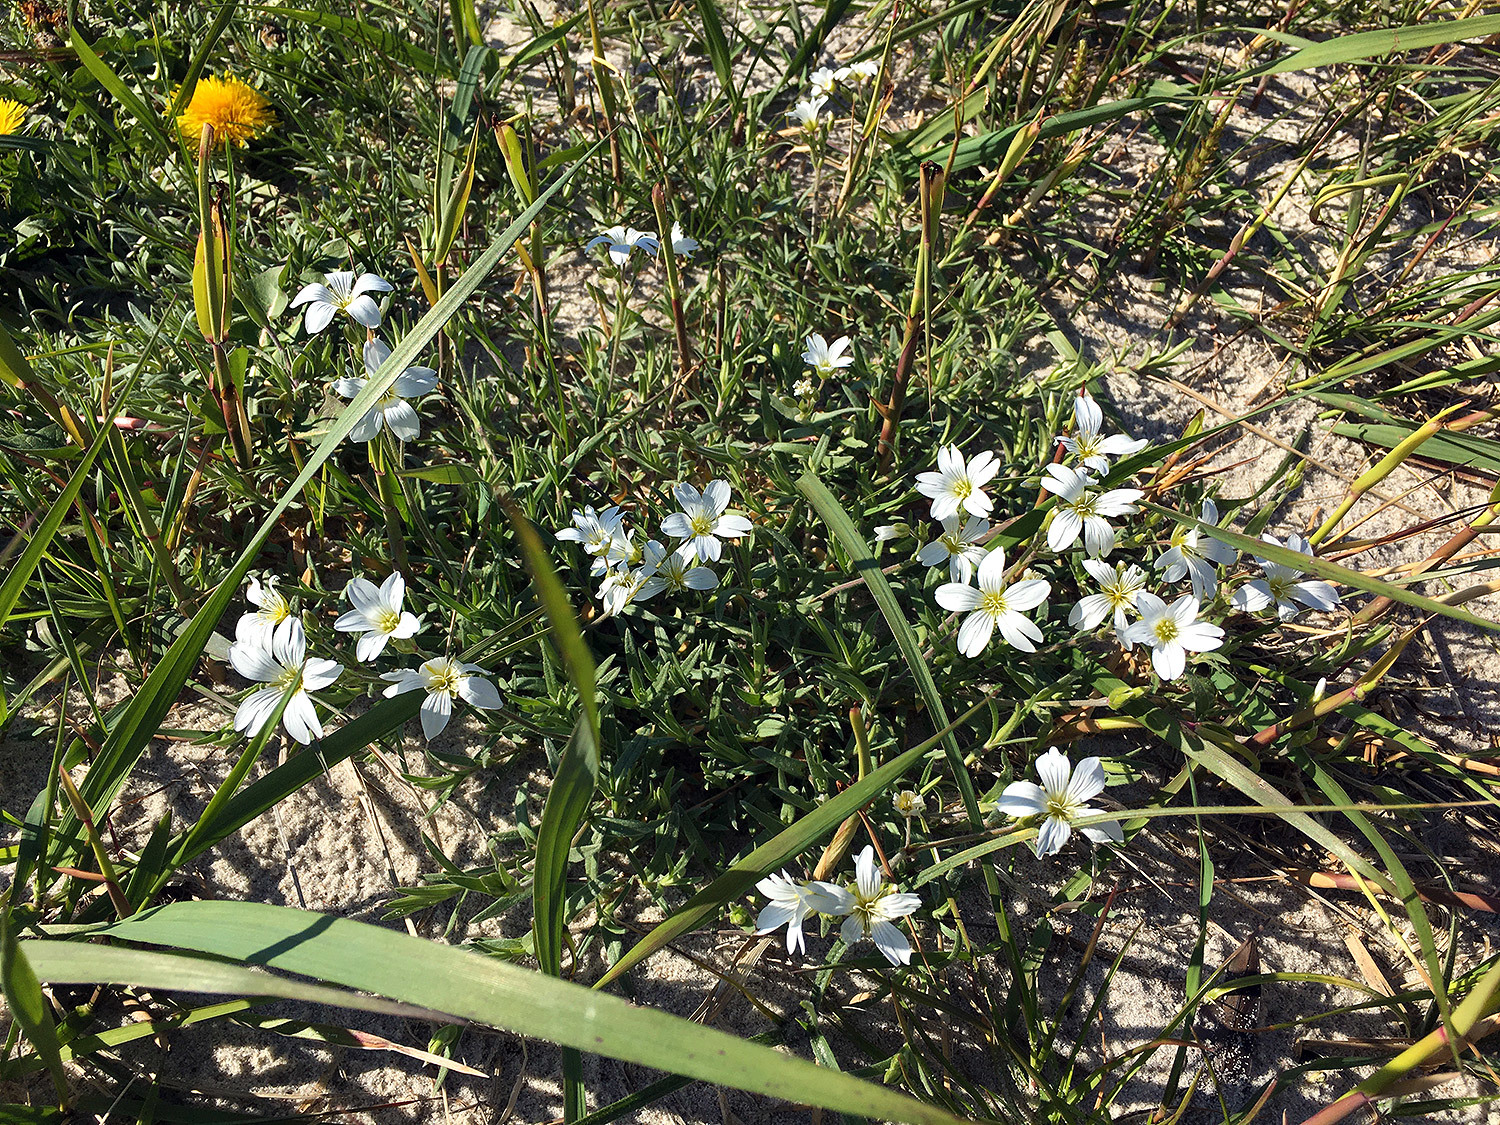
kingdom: Plantae
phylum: Tracheophyta
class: Magnoliopsida
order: Caryophyllales
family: Caryophyllaceae
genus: Cerastium
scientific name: Cerastium arvense
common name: Field mouse-ear
